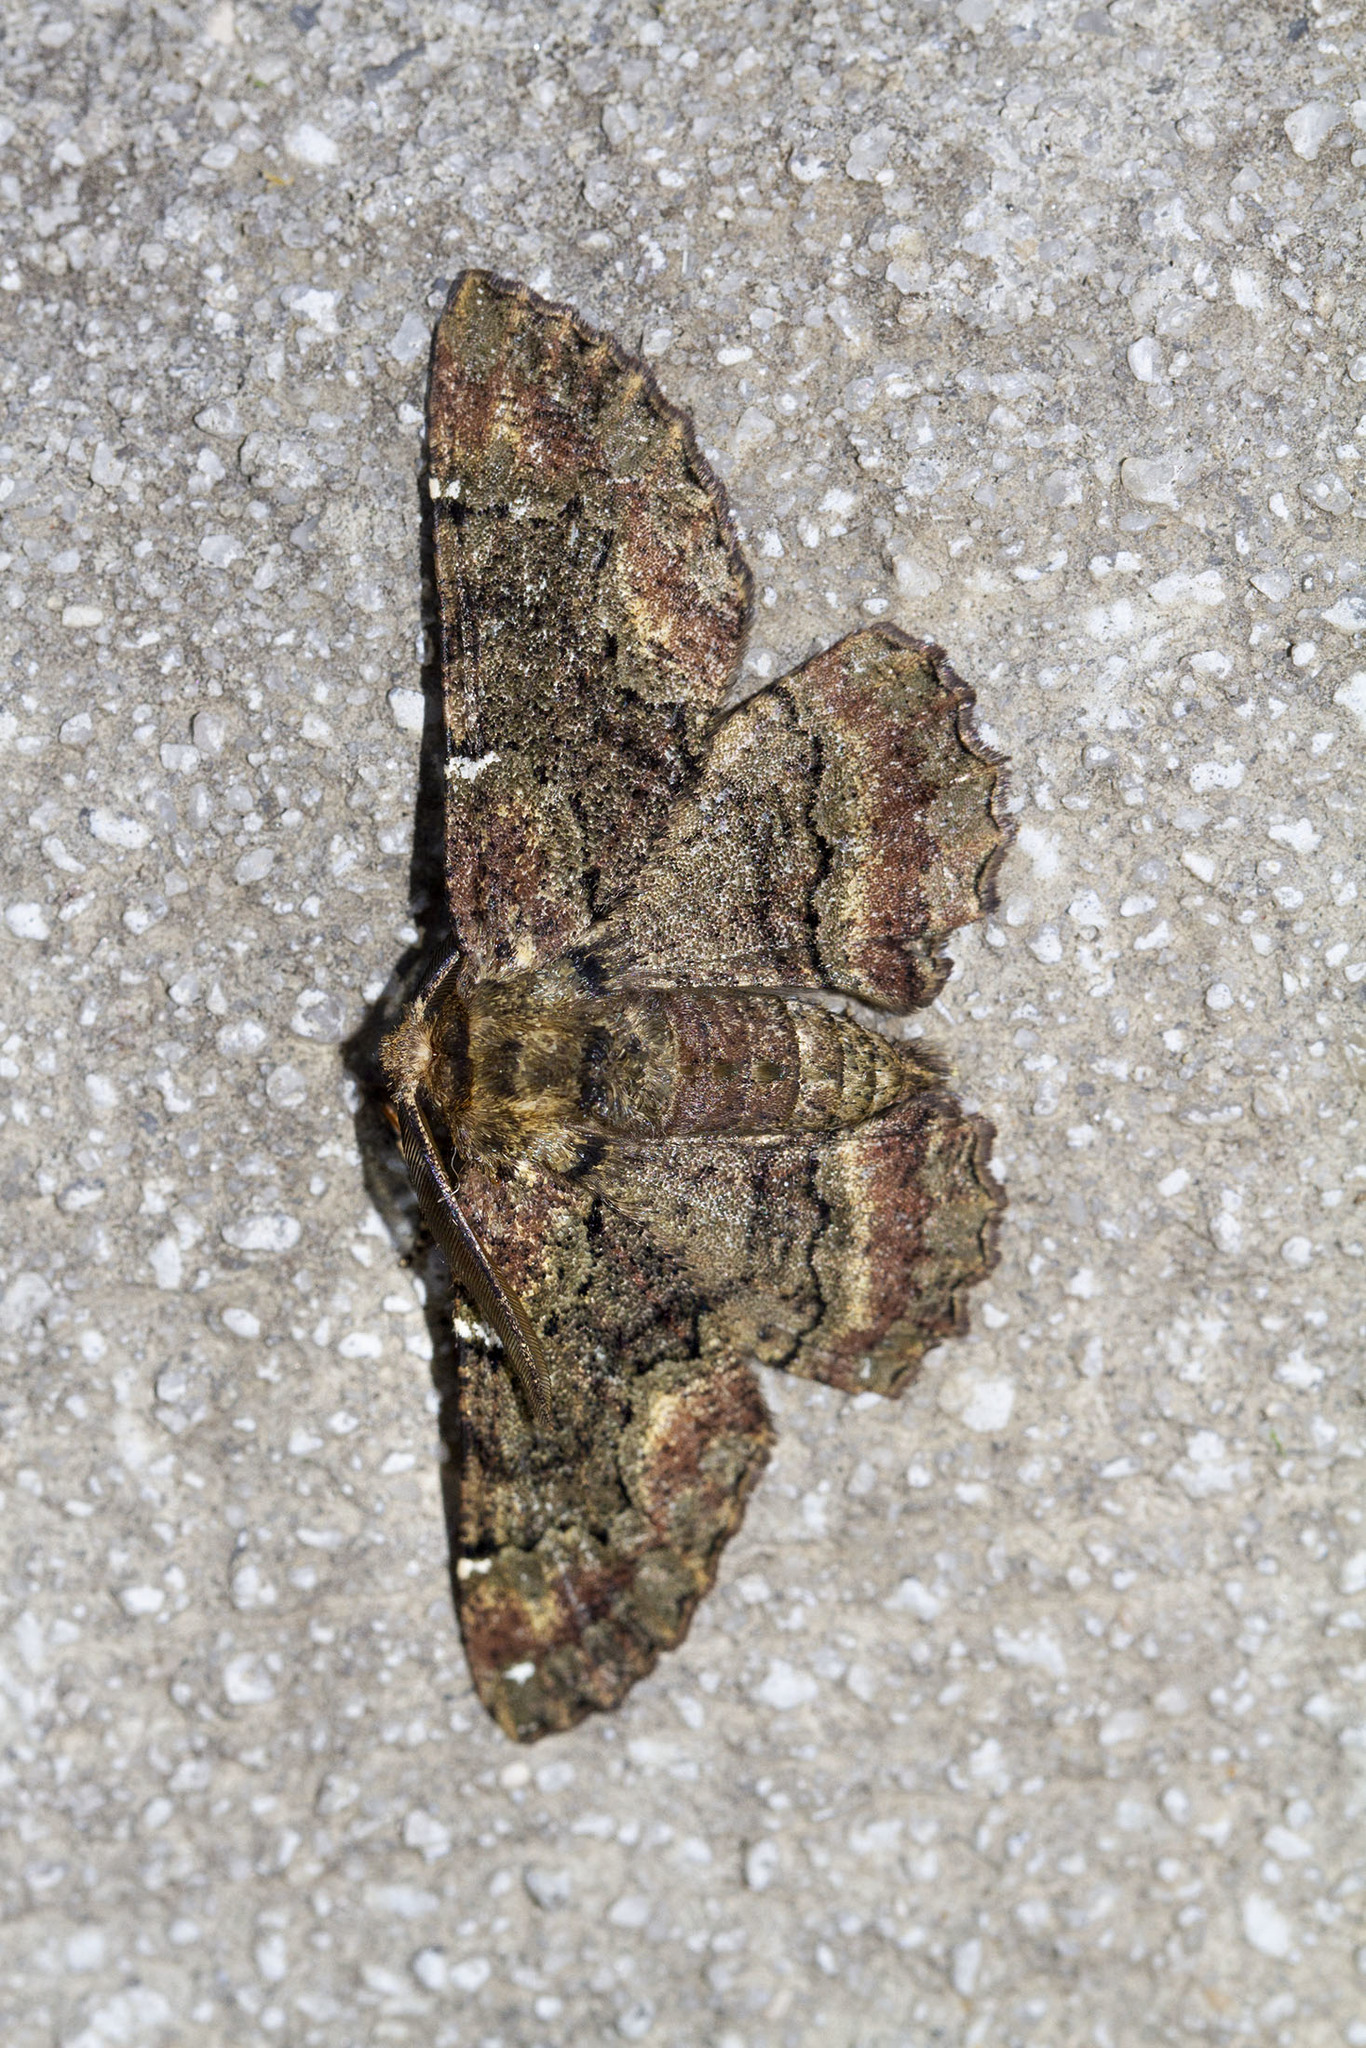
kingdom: Animalia
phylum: Arthropoda
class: Insecta
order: Lepidoptera
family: Geometridae
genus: Phaeoura
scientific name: Phaeoura quernaria
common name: Oak beauty
